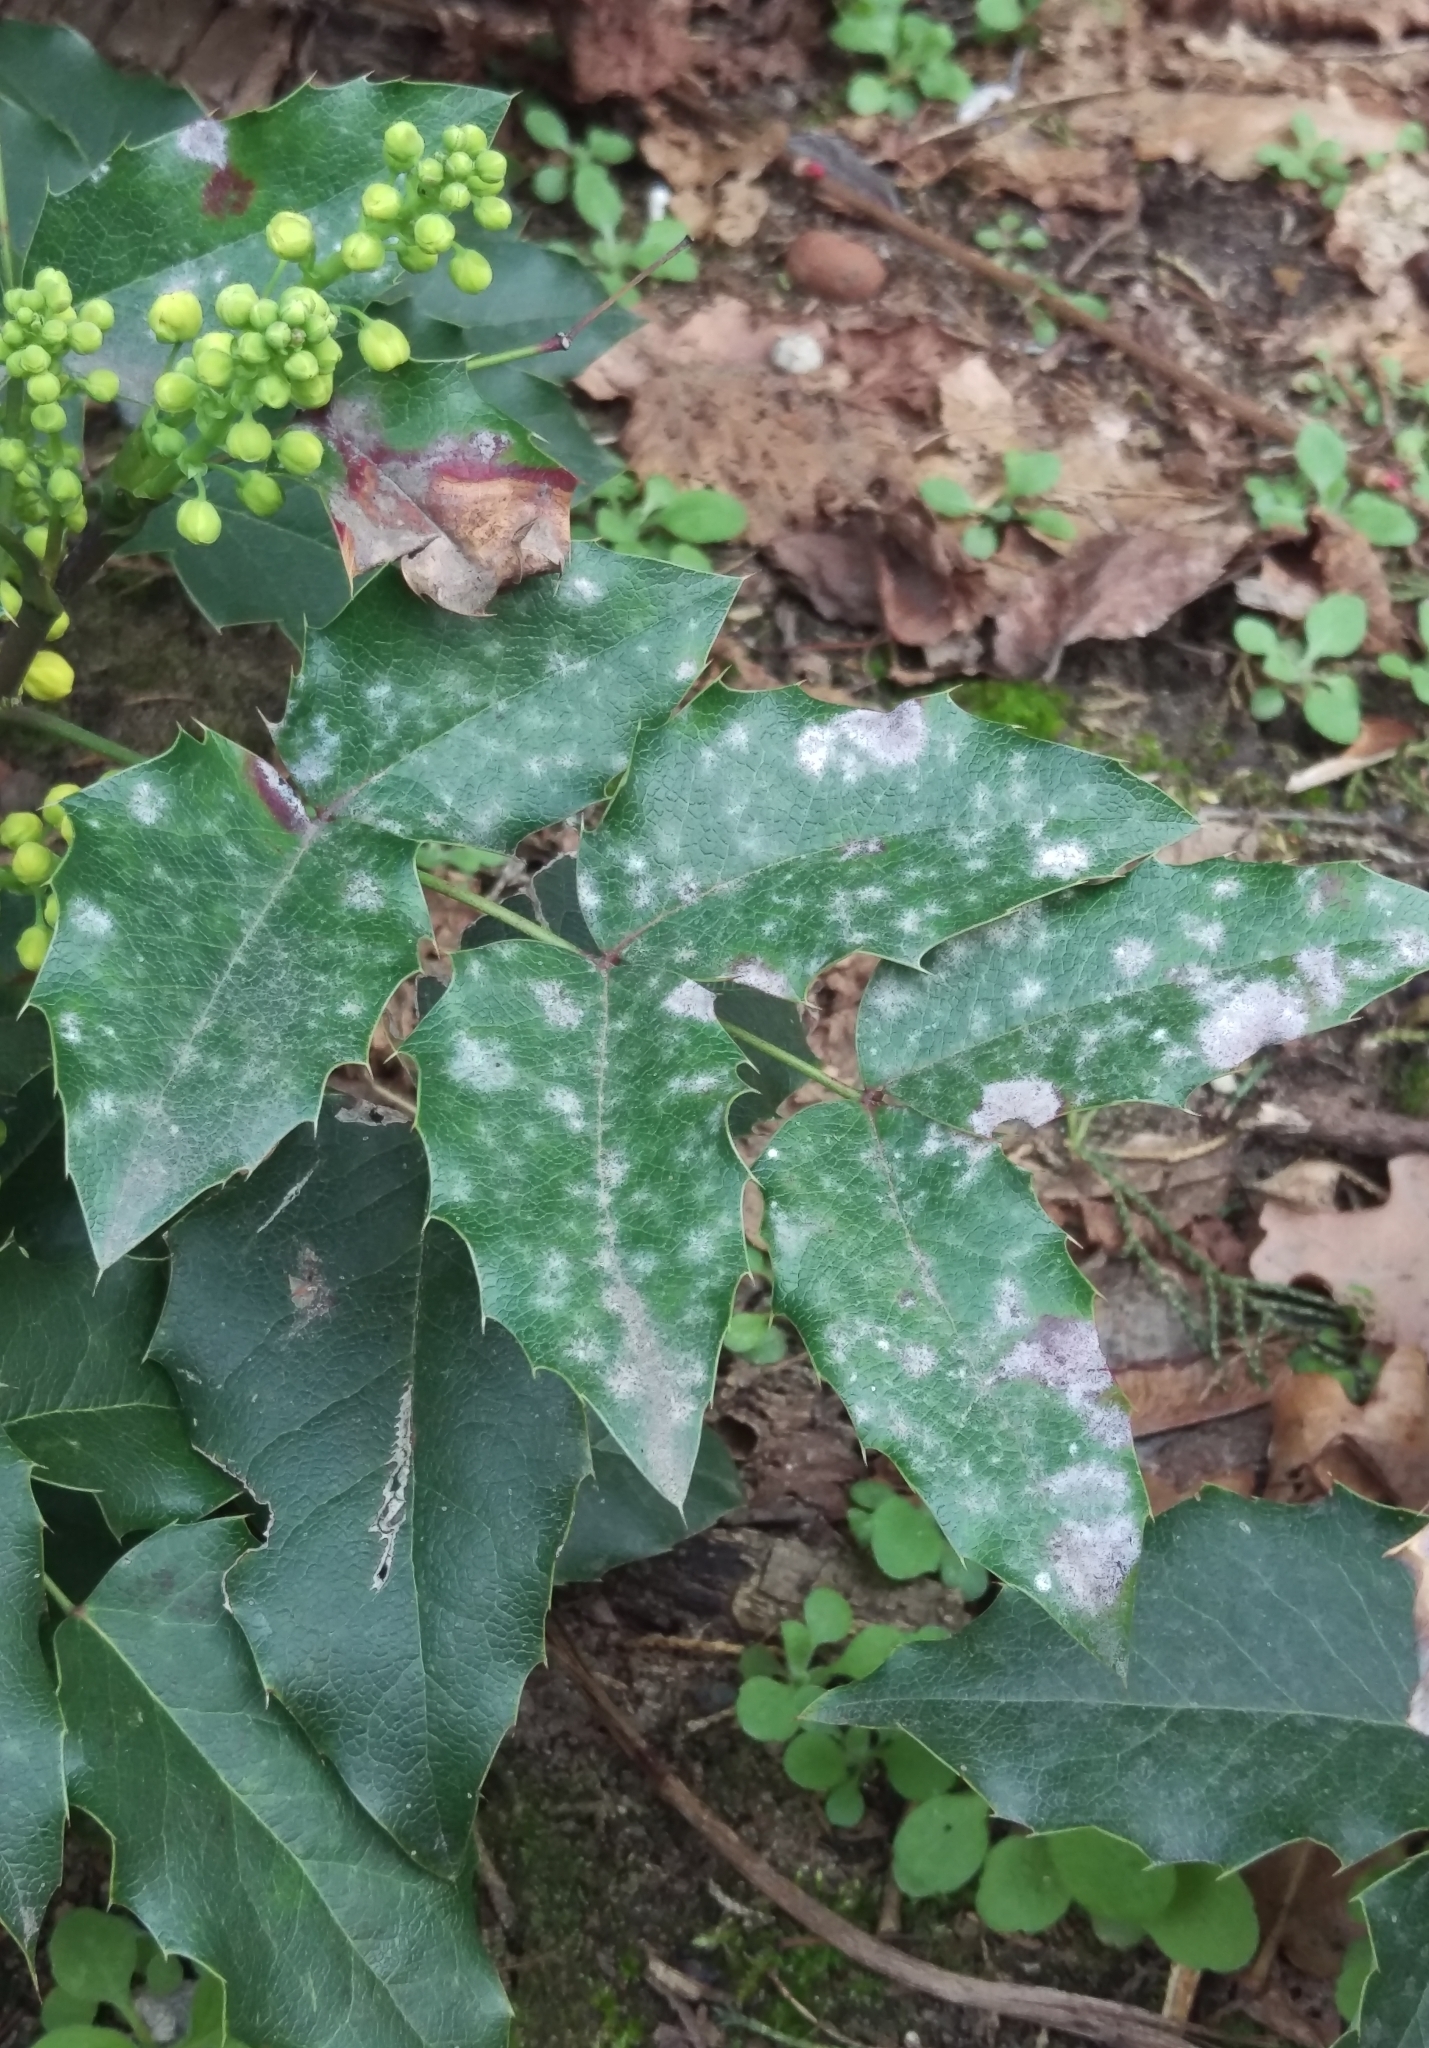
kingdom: Fungi
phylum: Ascomycota
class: Leotiomycetes
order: Helotiales
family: Erysiphaceae
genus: Erysiphe
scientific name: Erysiphe berberidis
